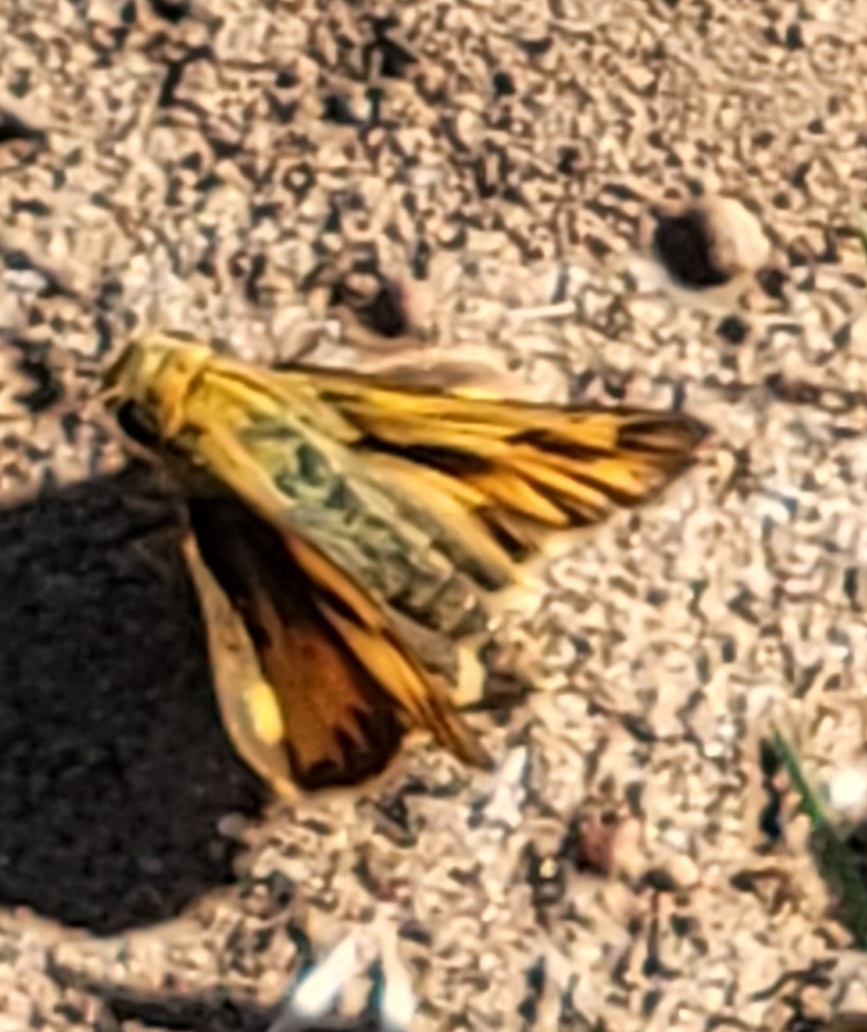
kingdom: Animalia
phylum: Arthropoda
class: Insecta
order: Lepidoptera
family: Hesperiidae
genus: Hylephila
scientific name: Hylephila phyleus
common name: Fiery skipper
